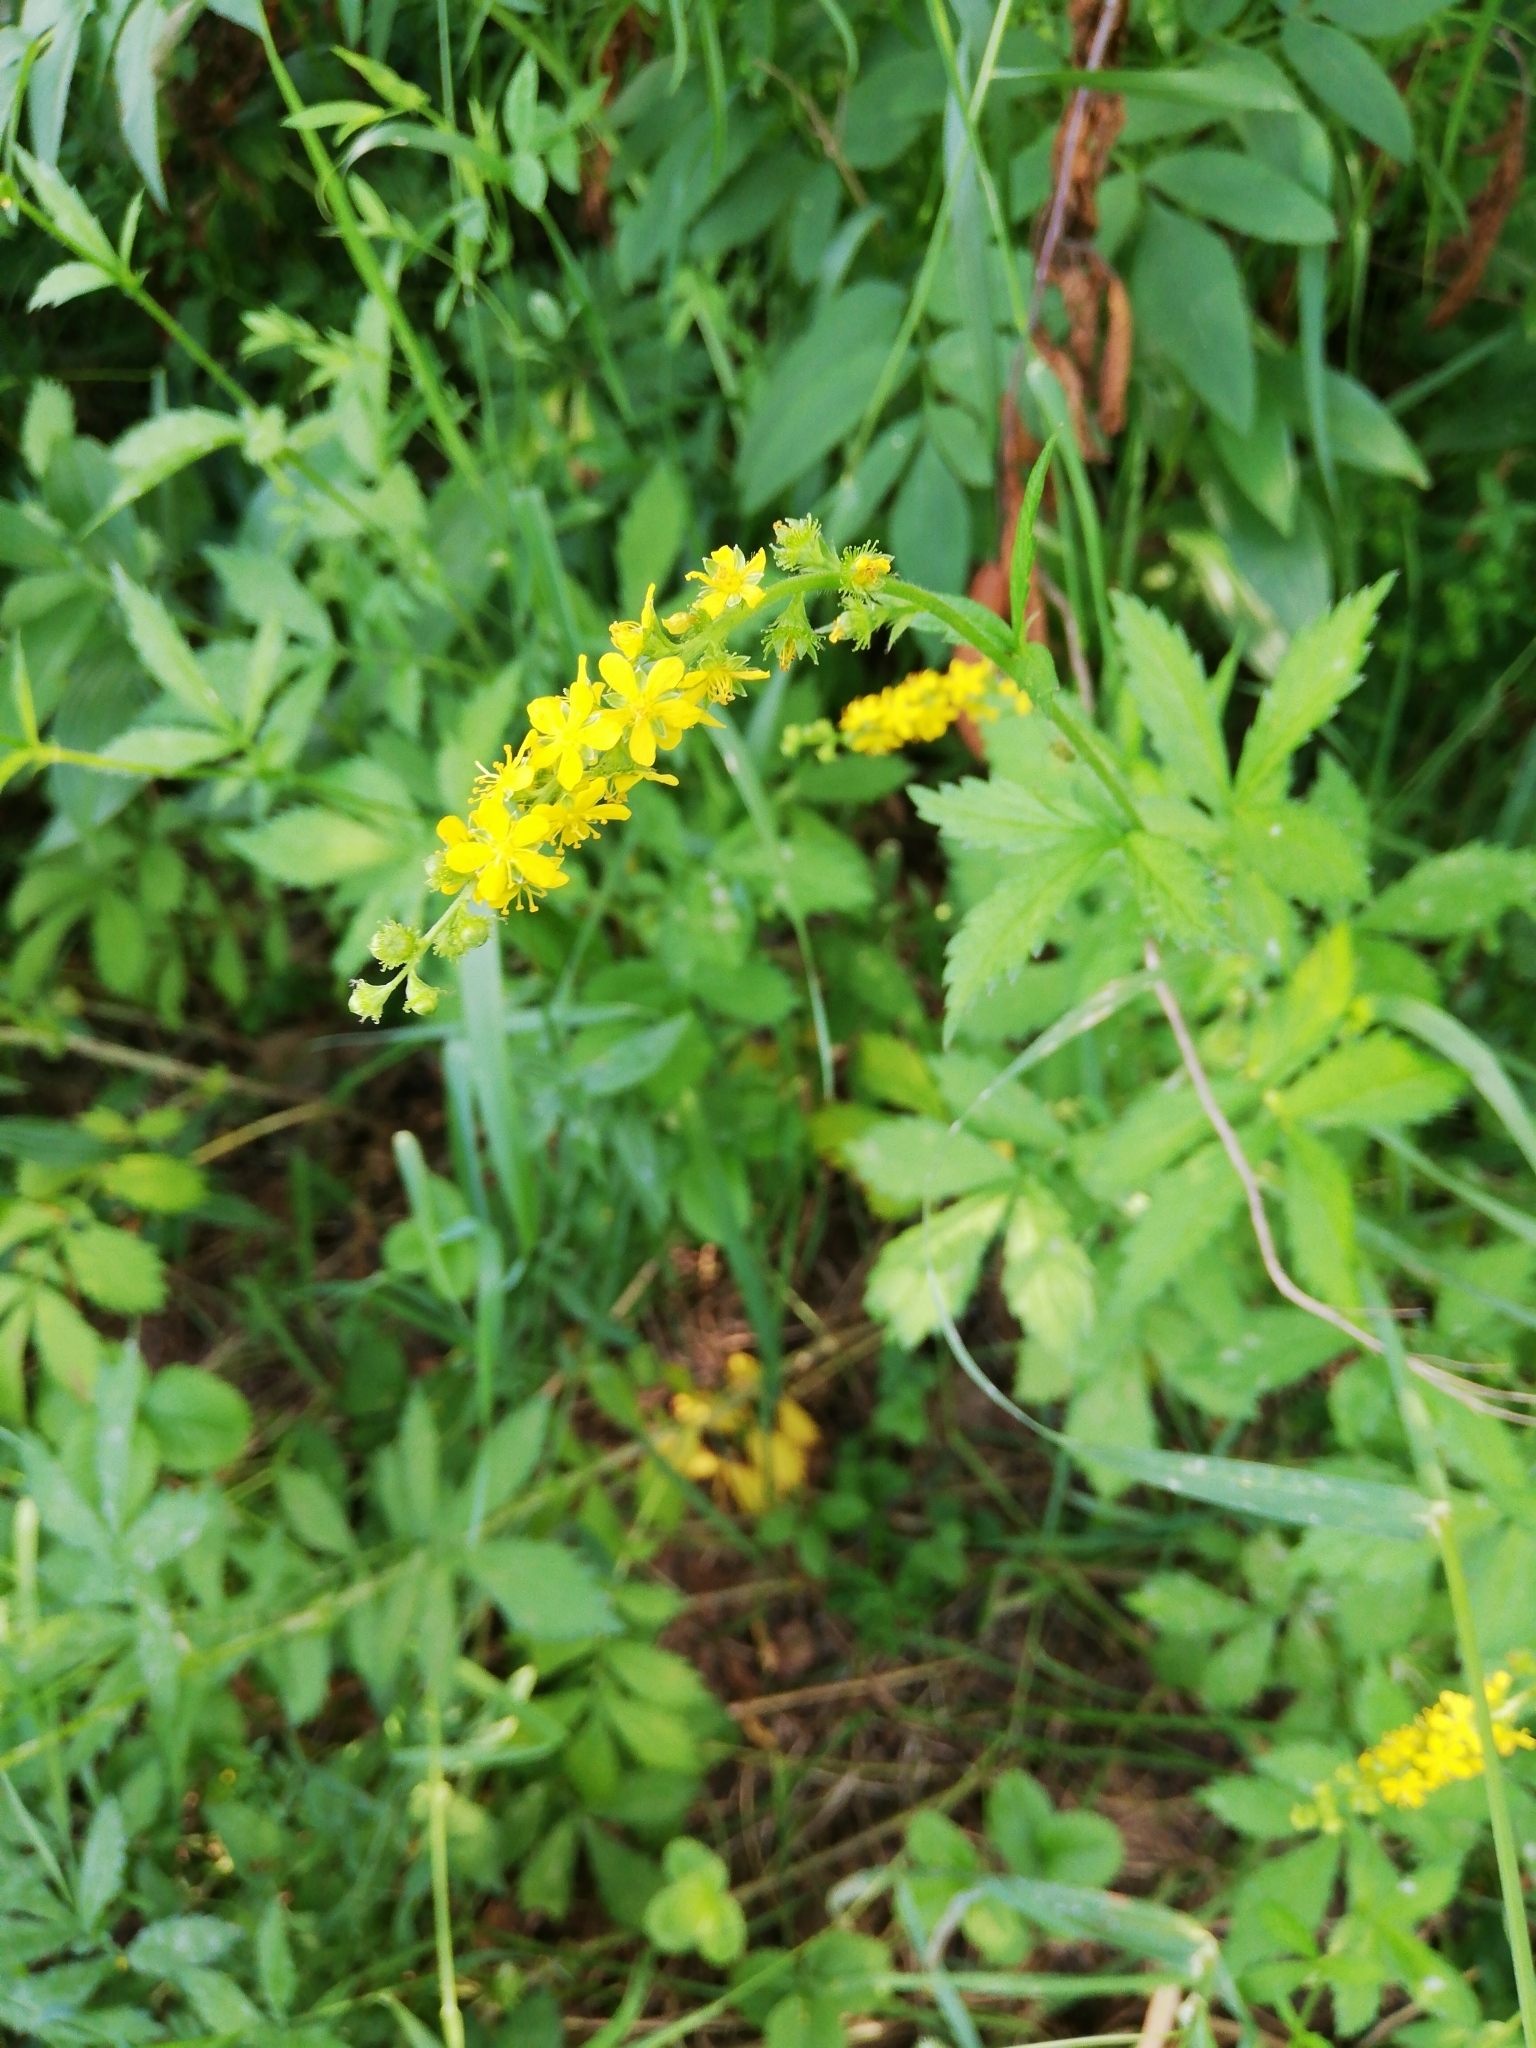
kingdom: Plantae
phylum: Tracheophyta
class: Magnoliopsida
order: Rosales
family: Rosaceae
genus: Agrimonia
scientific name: Agrimonia pilosa
